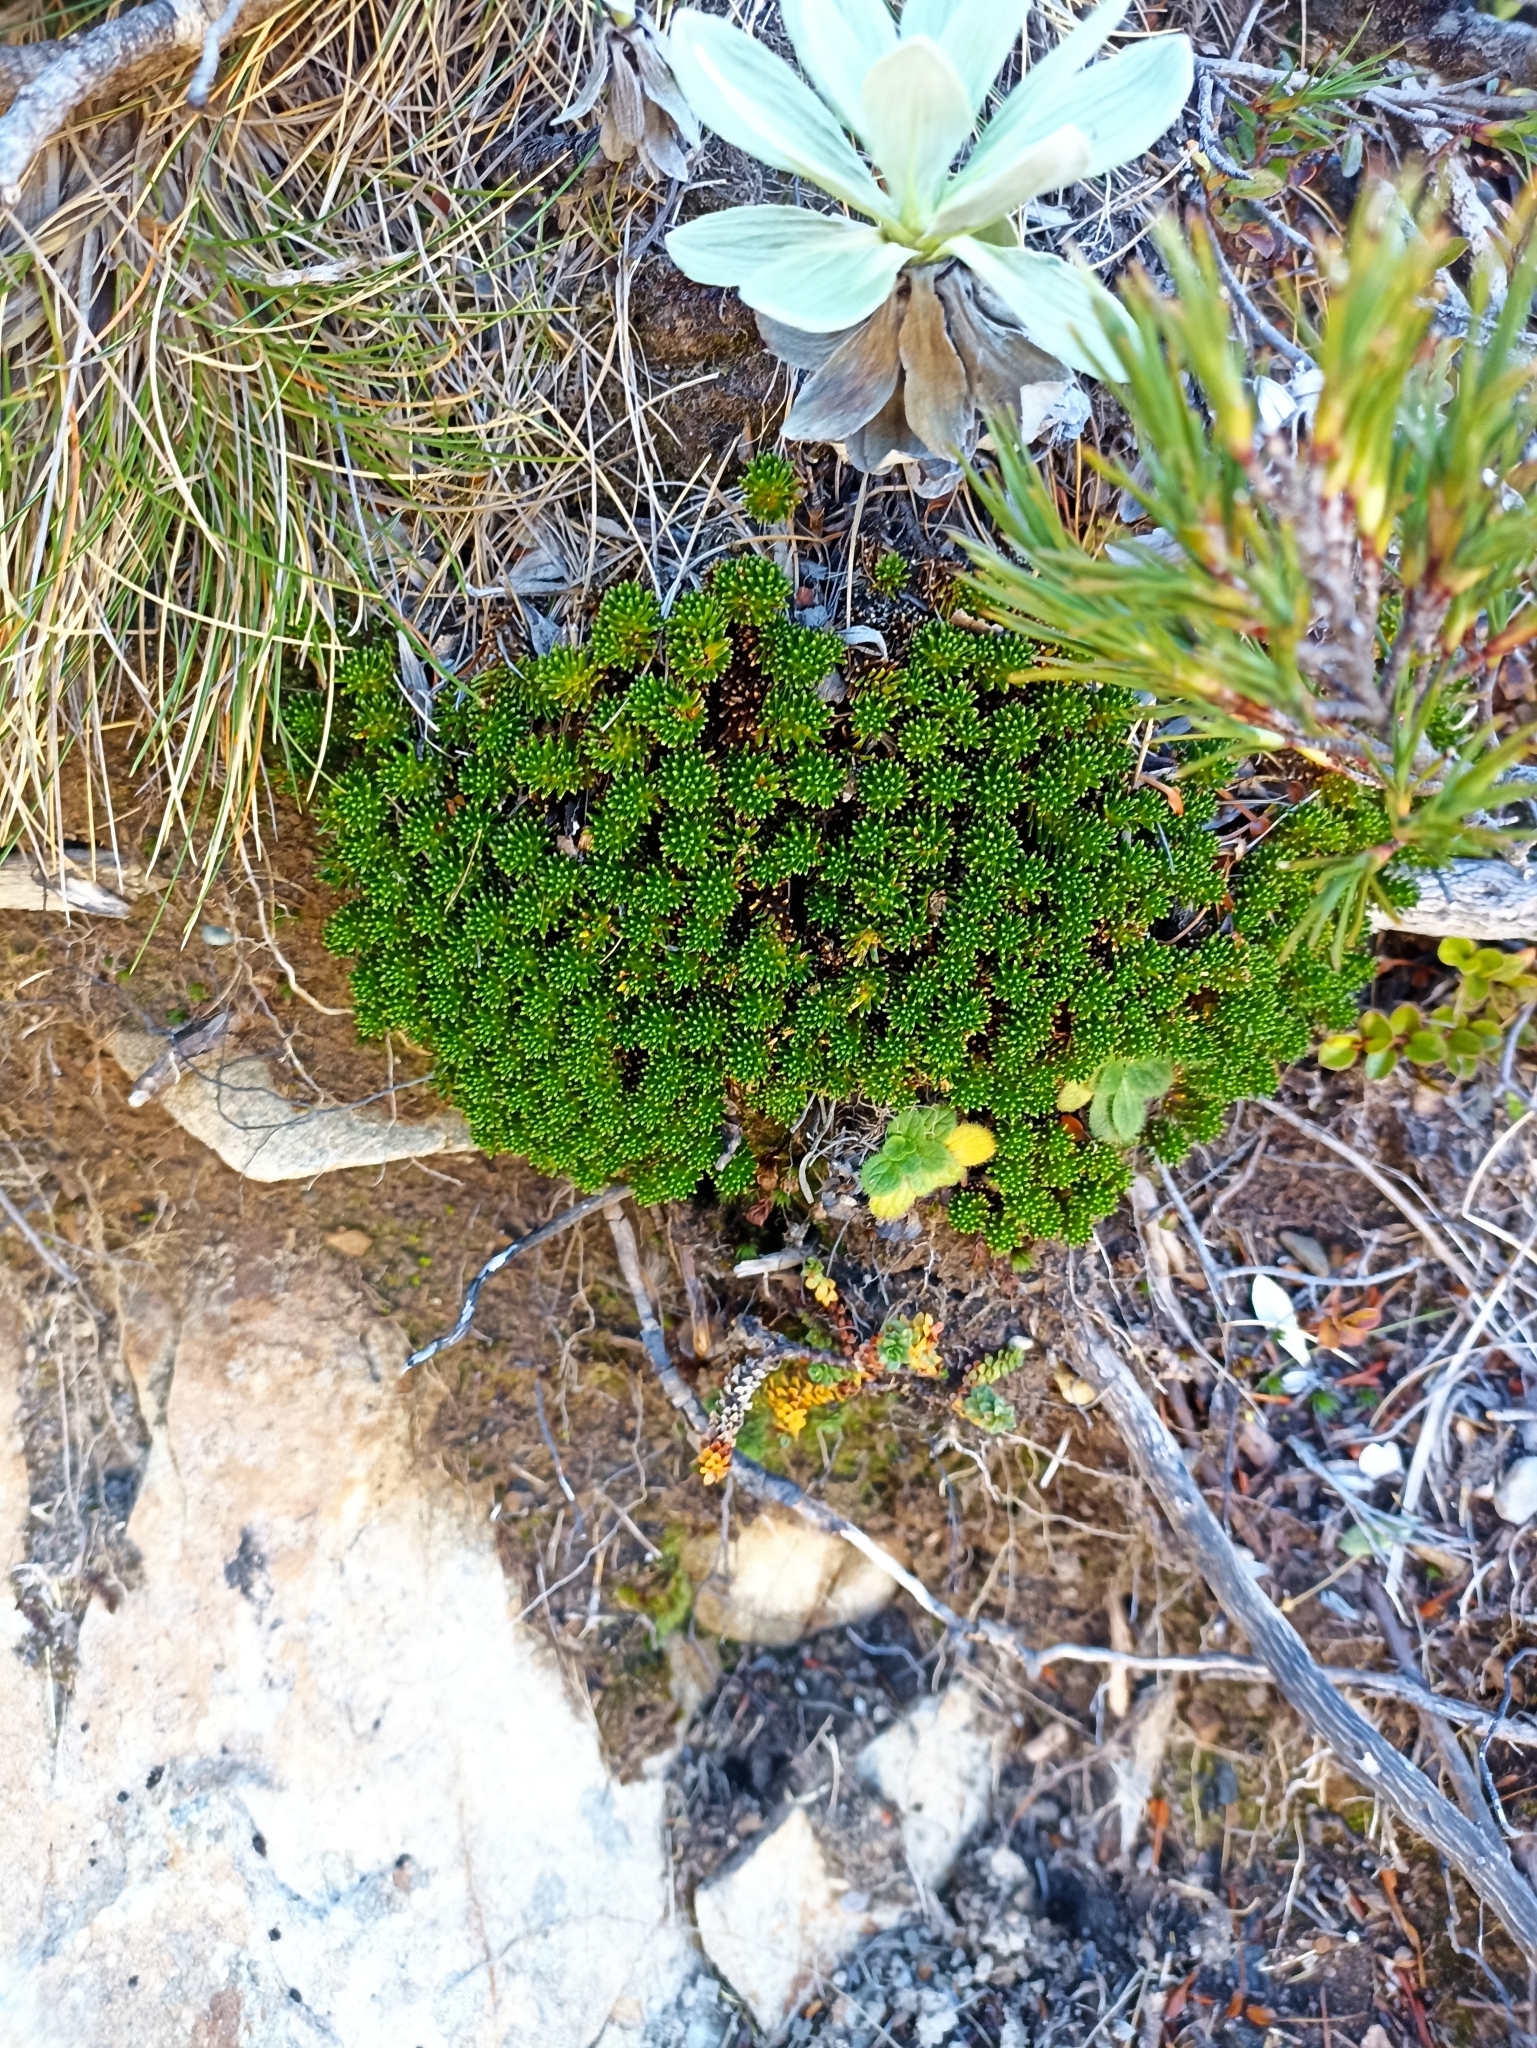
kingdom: Plantae
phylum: Tracheophyta
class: Magnoliopsida
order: Asterales
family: Stylidiaceae
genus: Phyllachne
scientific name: Phyllachne colensoi
